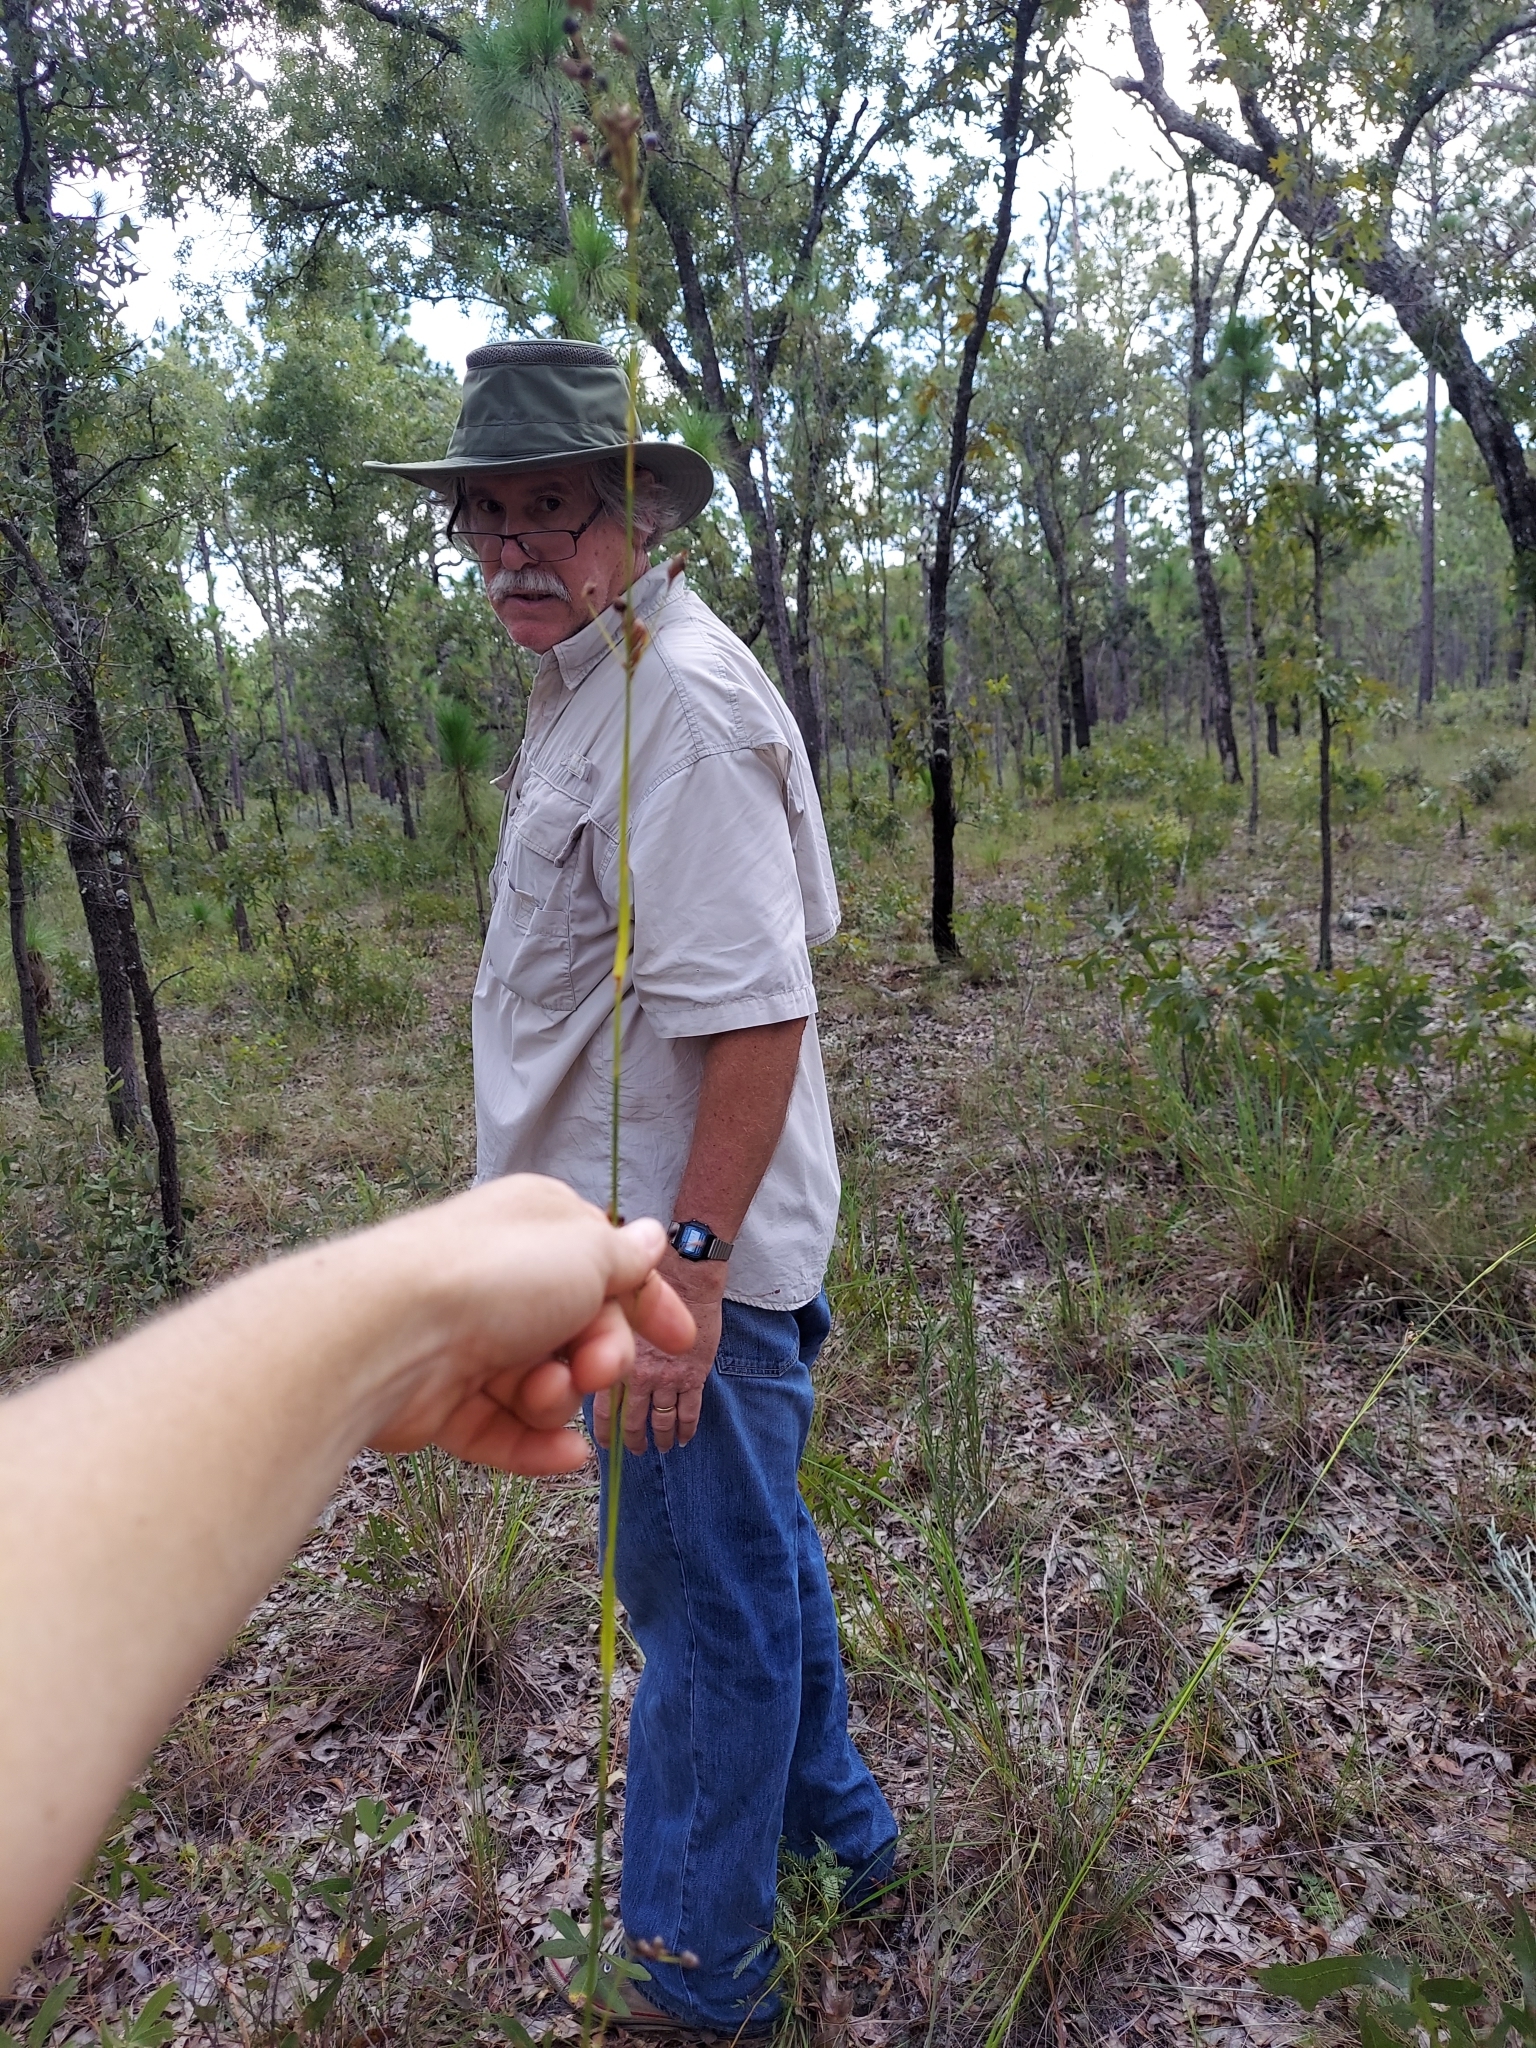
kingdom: Plantae
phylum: Tracheophyta
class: Liliopsida
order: Poales
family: Cyperaceae
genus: Rhynchospora
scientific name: Rhynchospora megalocarpa
